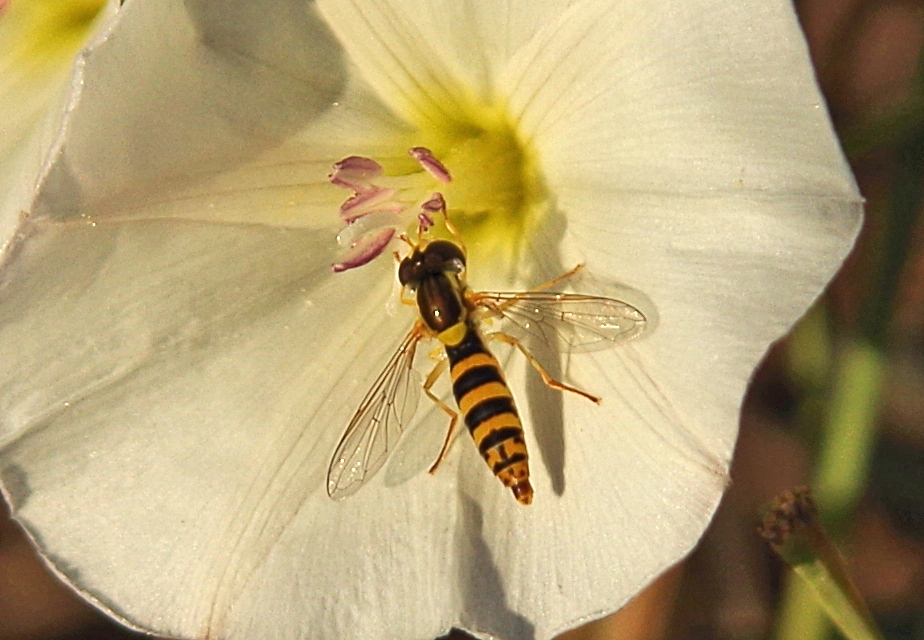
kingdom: Animalia
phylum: Arthropoda
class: Insecta
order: Diptera
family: Syrphidae
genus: Sphaerophoria
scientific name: Sphaerophoria
